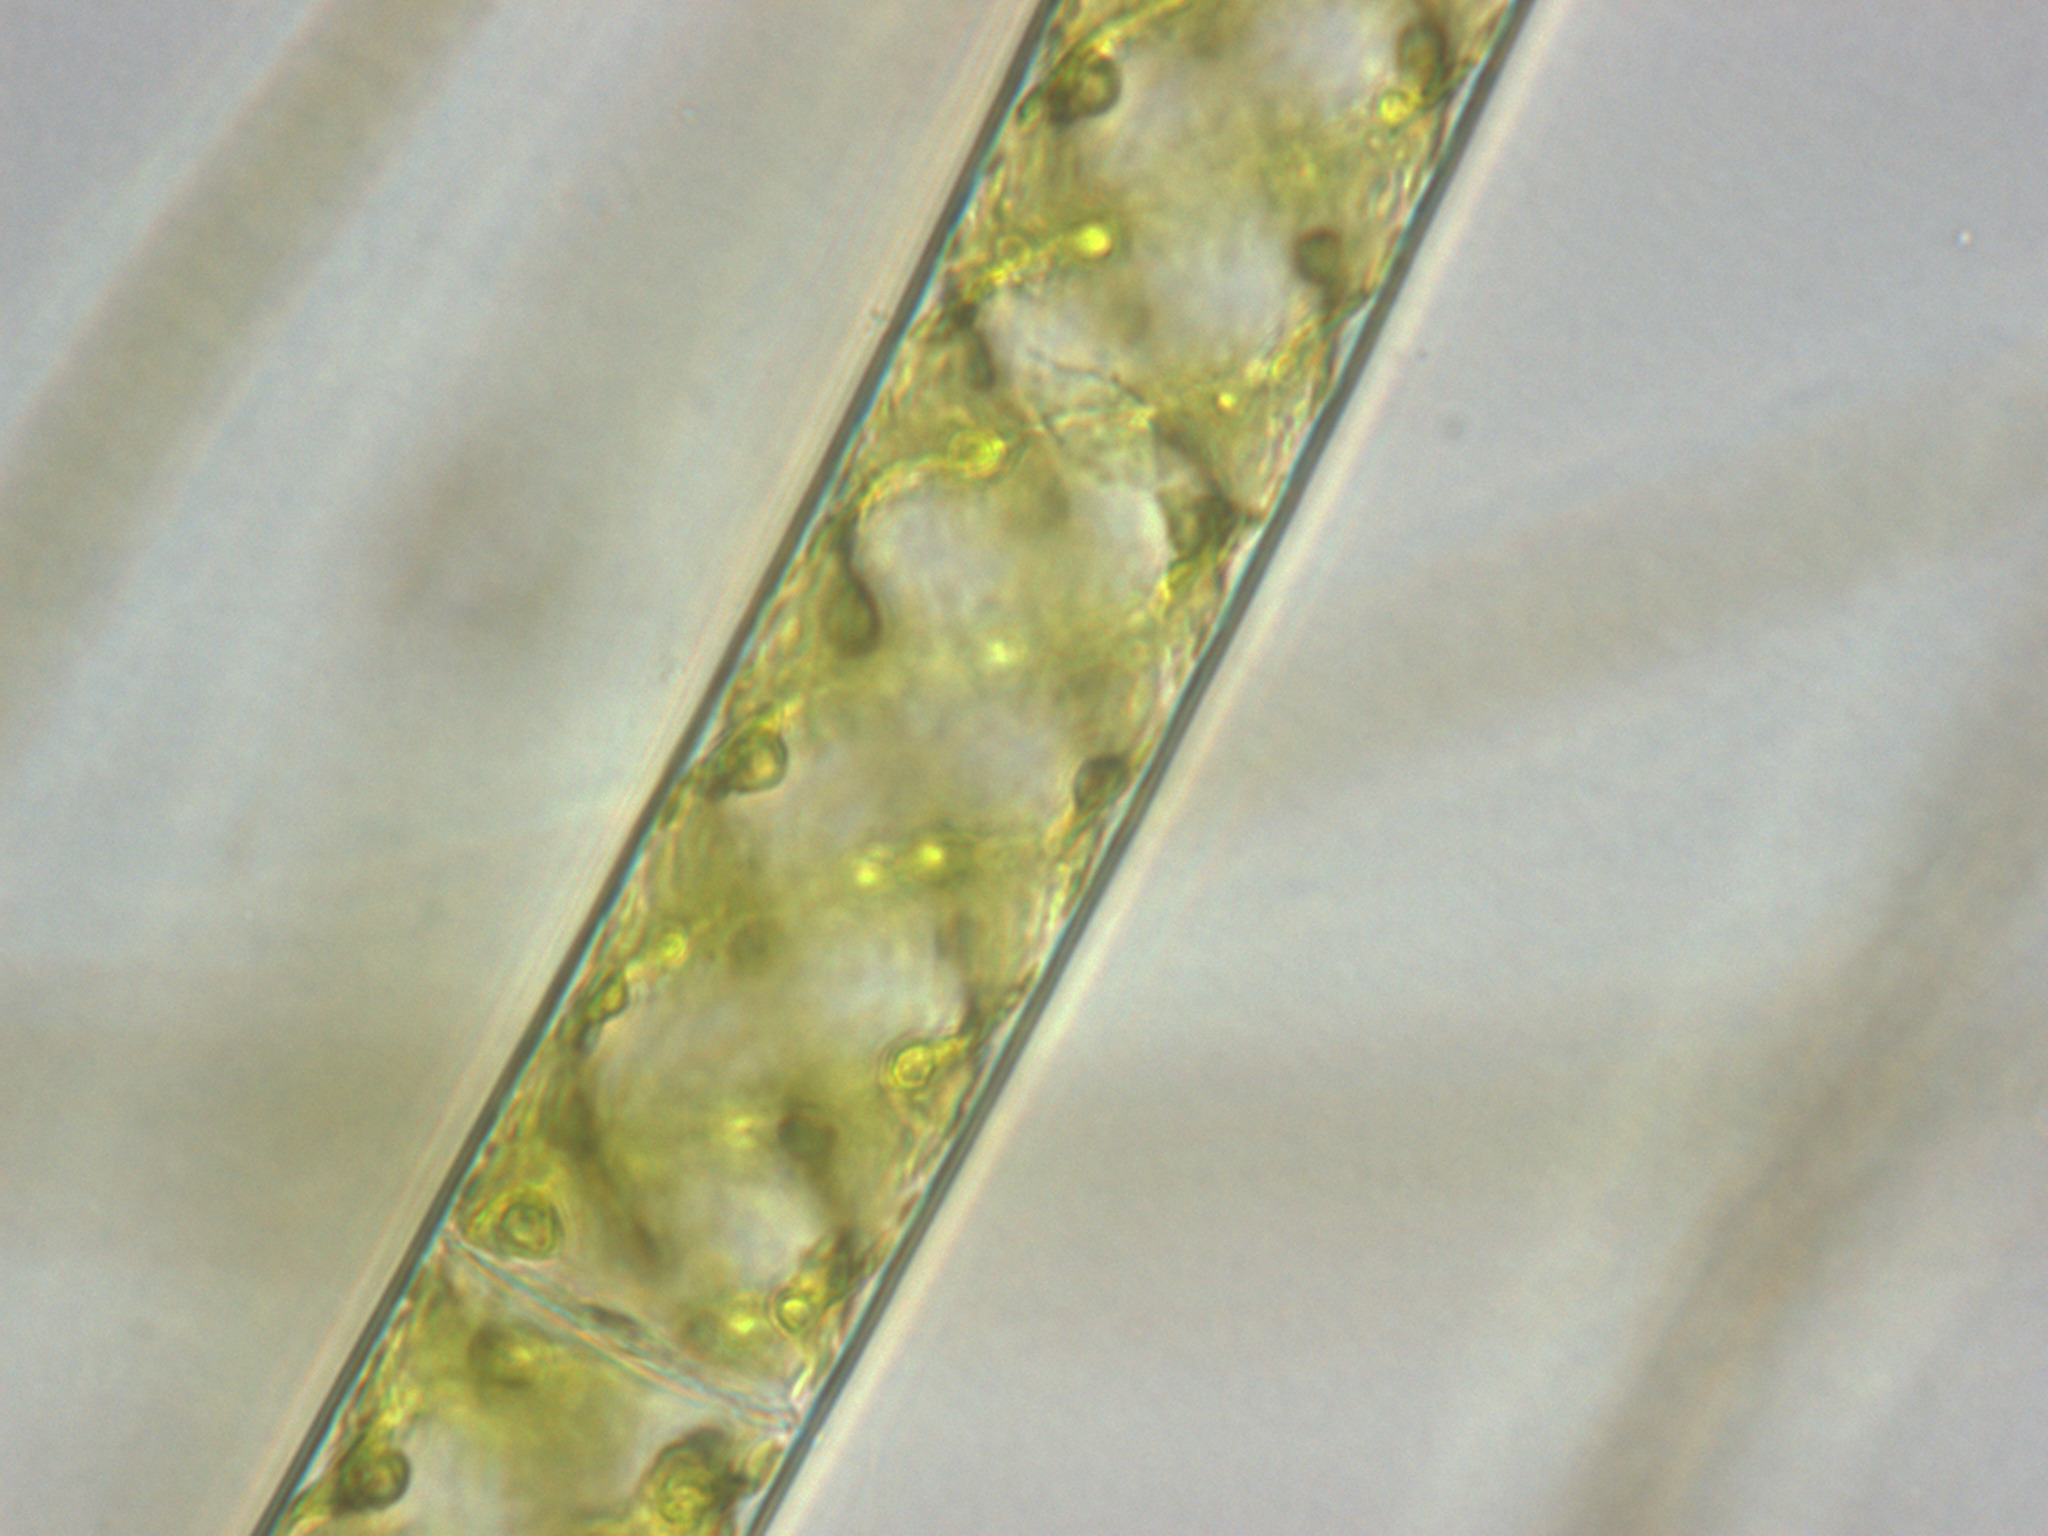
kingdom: Plantae
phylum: Charophyta
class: Zygnematophyceae
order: Zygnematales
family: Zygnemataceae
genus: Spirogyra
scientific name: Spirogyra
